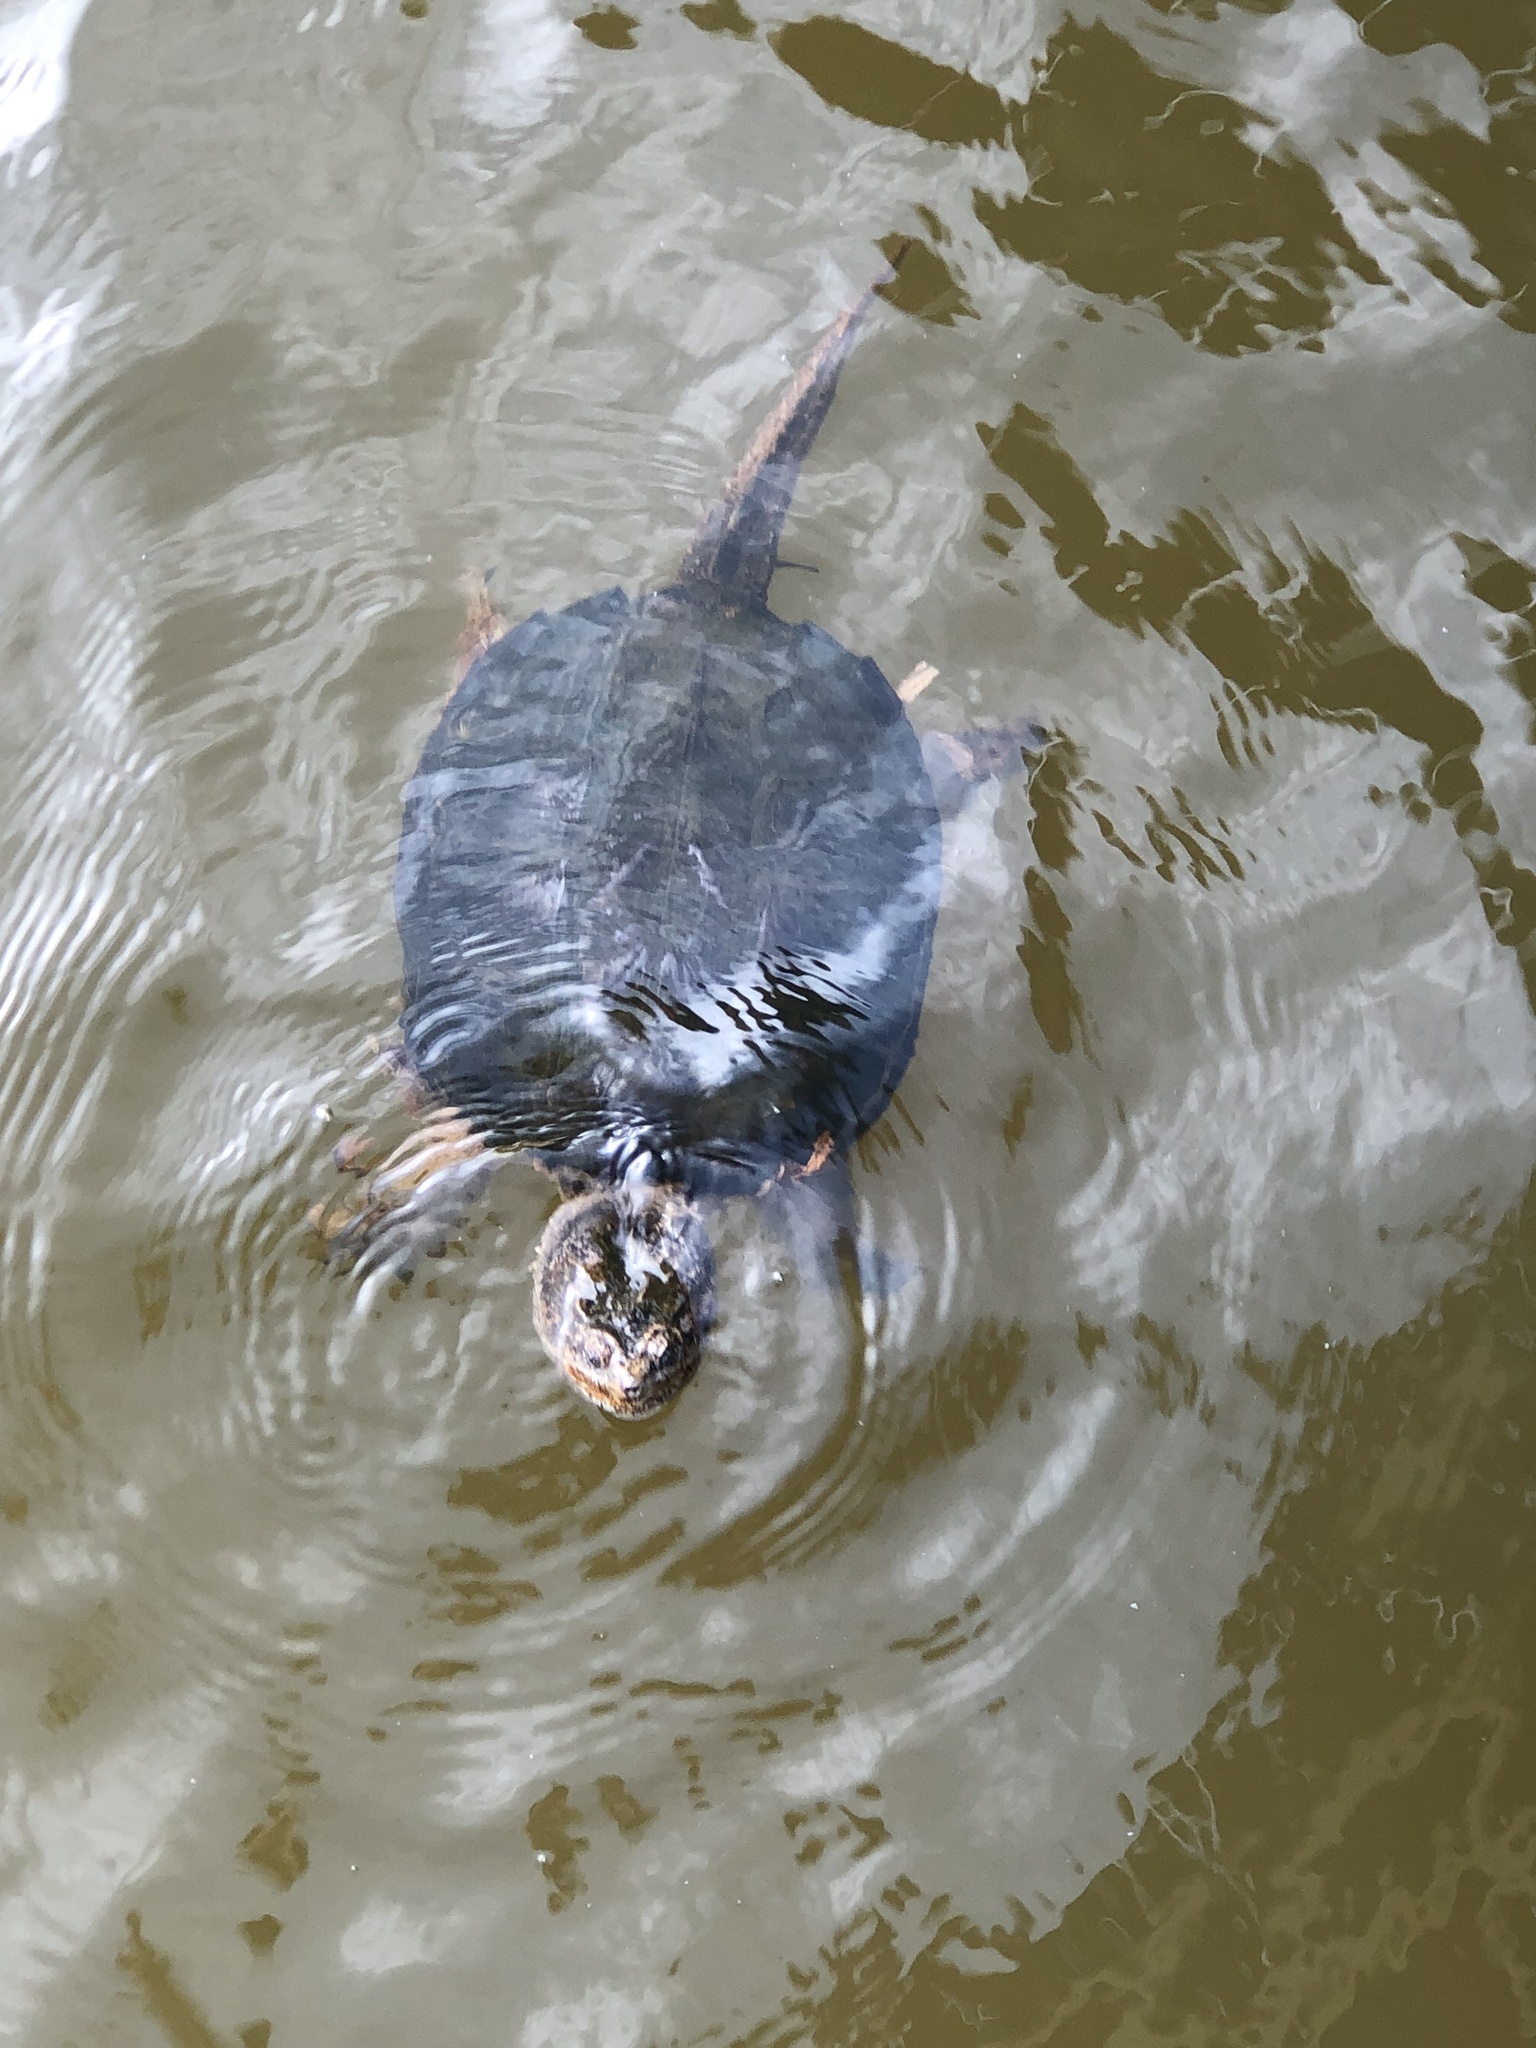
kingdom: Animalia
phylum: Chordata
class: Testudines
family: Chelydridae
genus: Chelydra
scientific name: Chelydra serpentina
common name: Common snapping turtle
